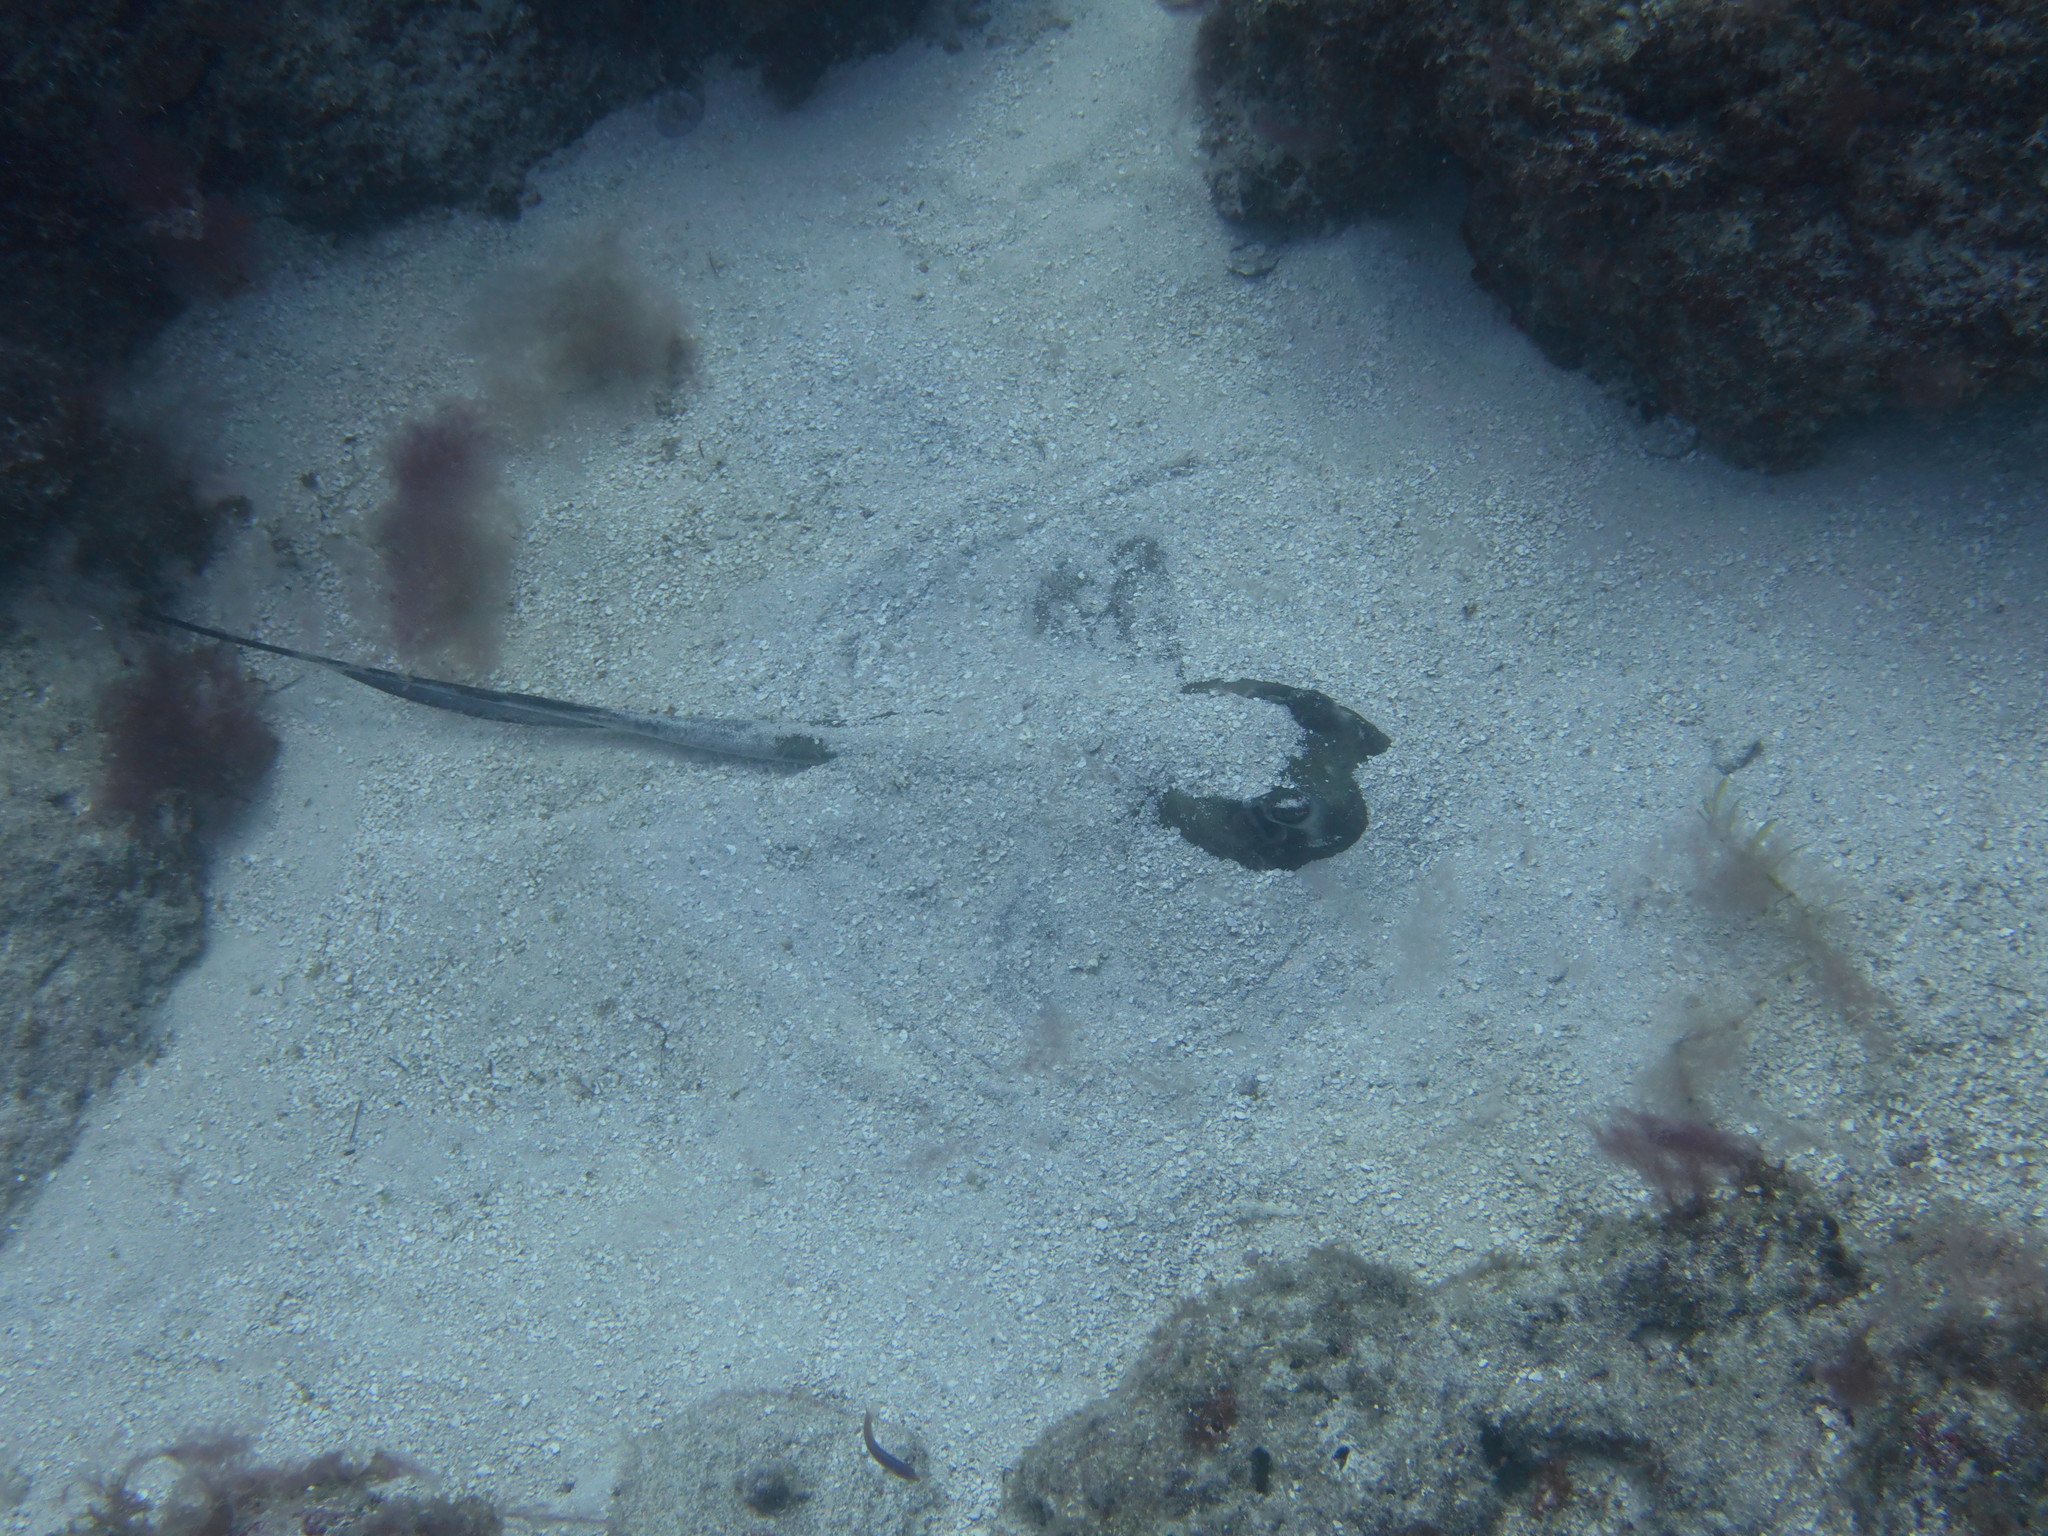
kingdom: Animalia
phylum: Chordata
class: Elasmobranchii
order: Myliobatiformes
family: Dasyatidae
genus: Hypanus
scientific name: Hypanus americanus
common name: Southern stingray
